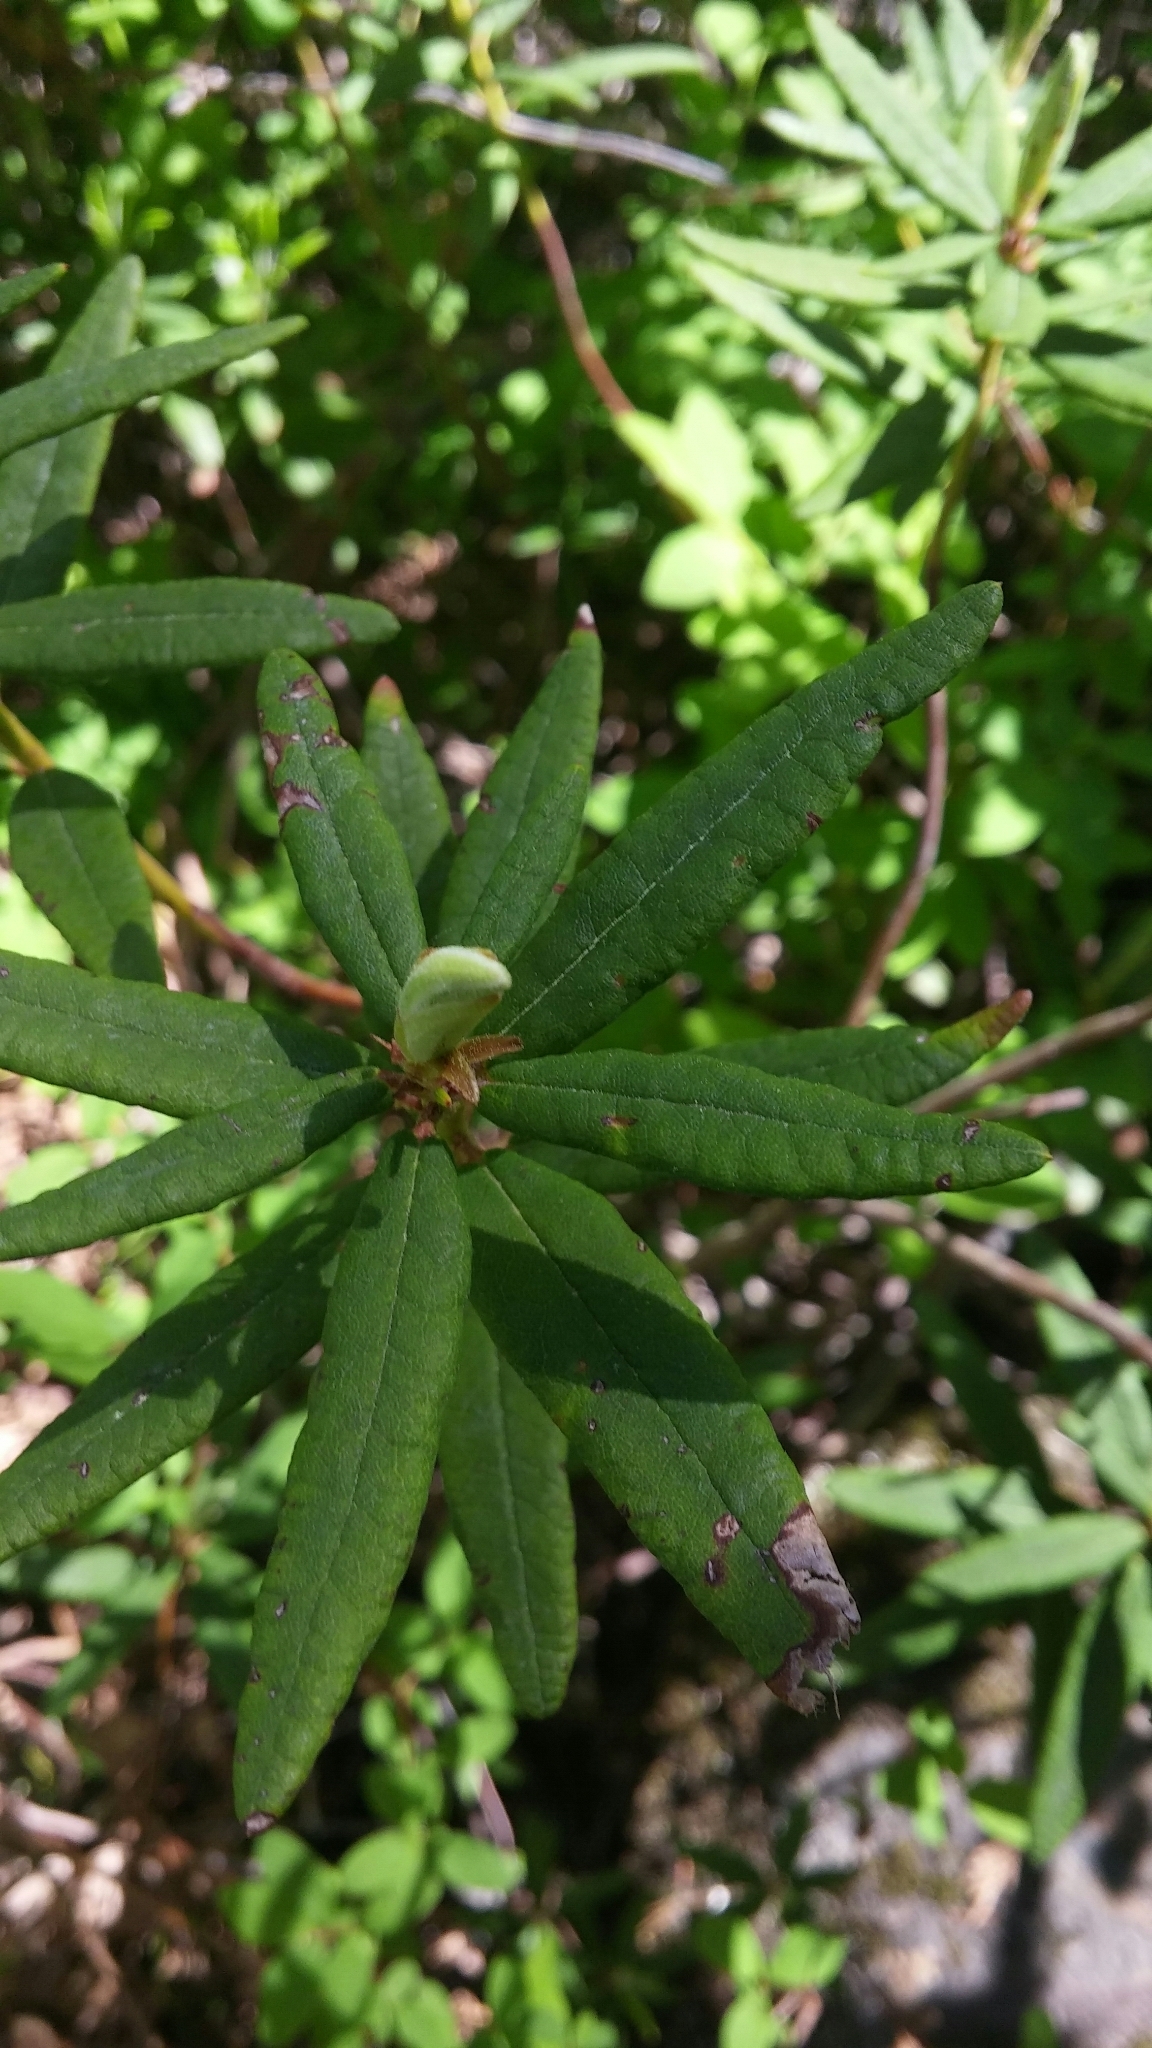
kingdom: Plantae
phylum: Tracheophyta
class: Magnoliopsida
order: Ericales
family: Ericaceae
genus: Rhododendron
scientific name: Rhododendron groenlandicum
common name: Bog labrador tea
